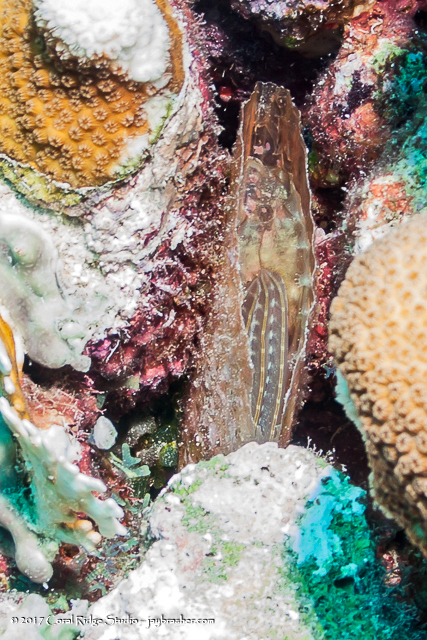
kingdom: Animalia
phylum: Mollusca
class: Bivalvia
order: Ostreida
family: Pinnidae
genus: Pinna
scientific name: Pinna carnea
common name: Amber penshell
